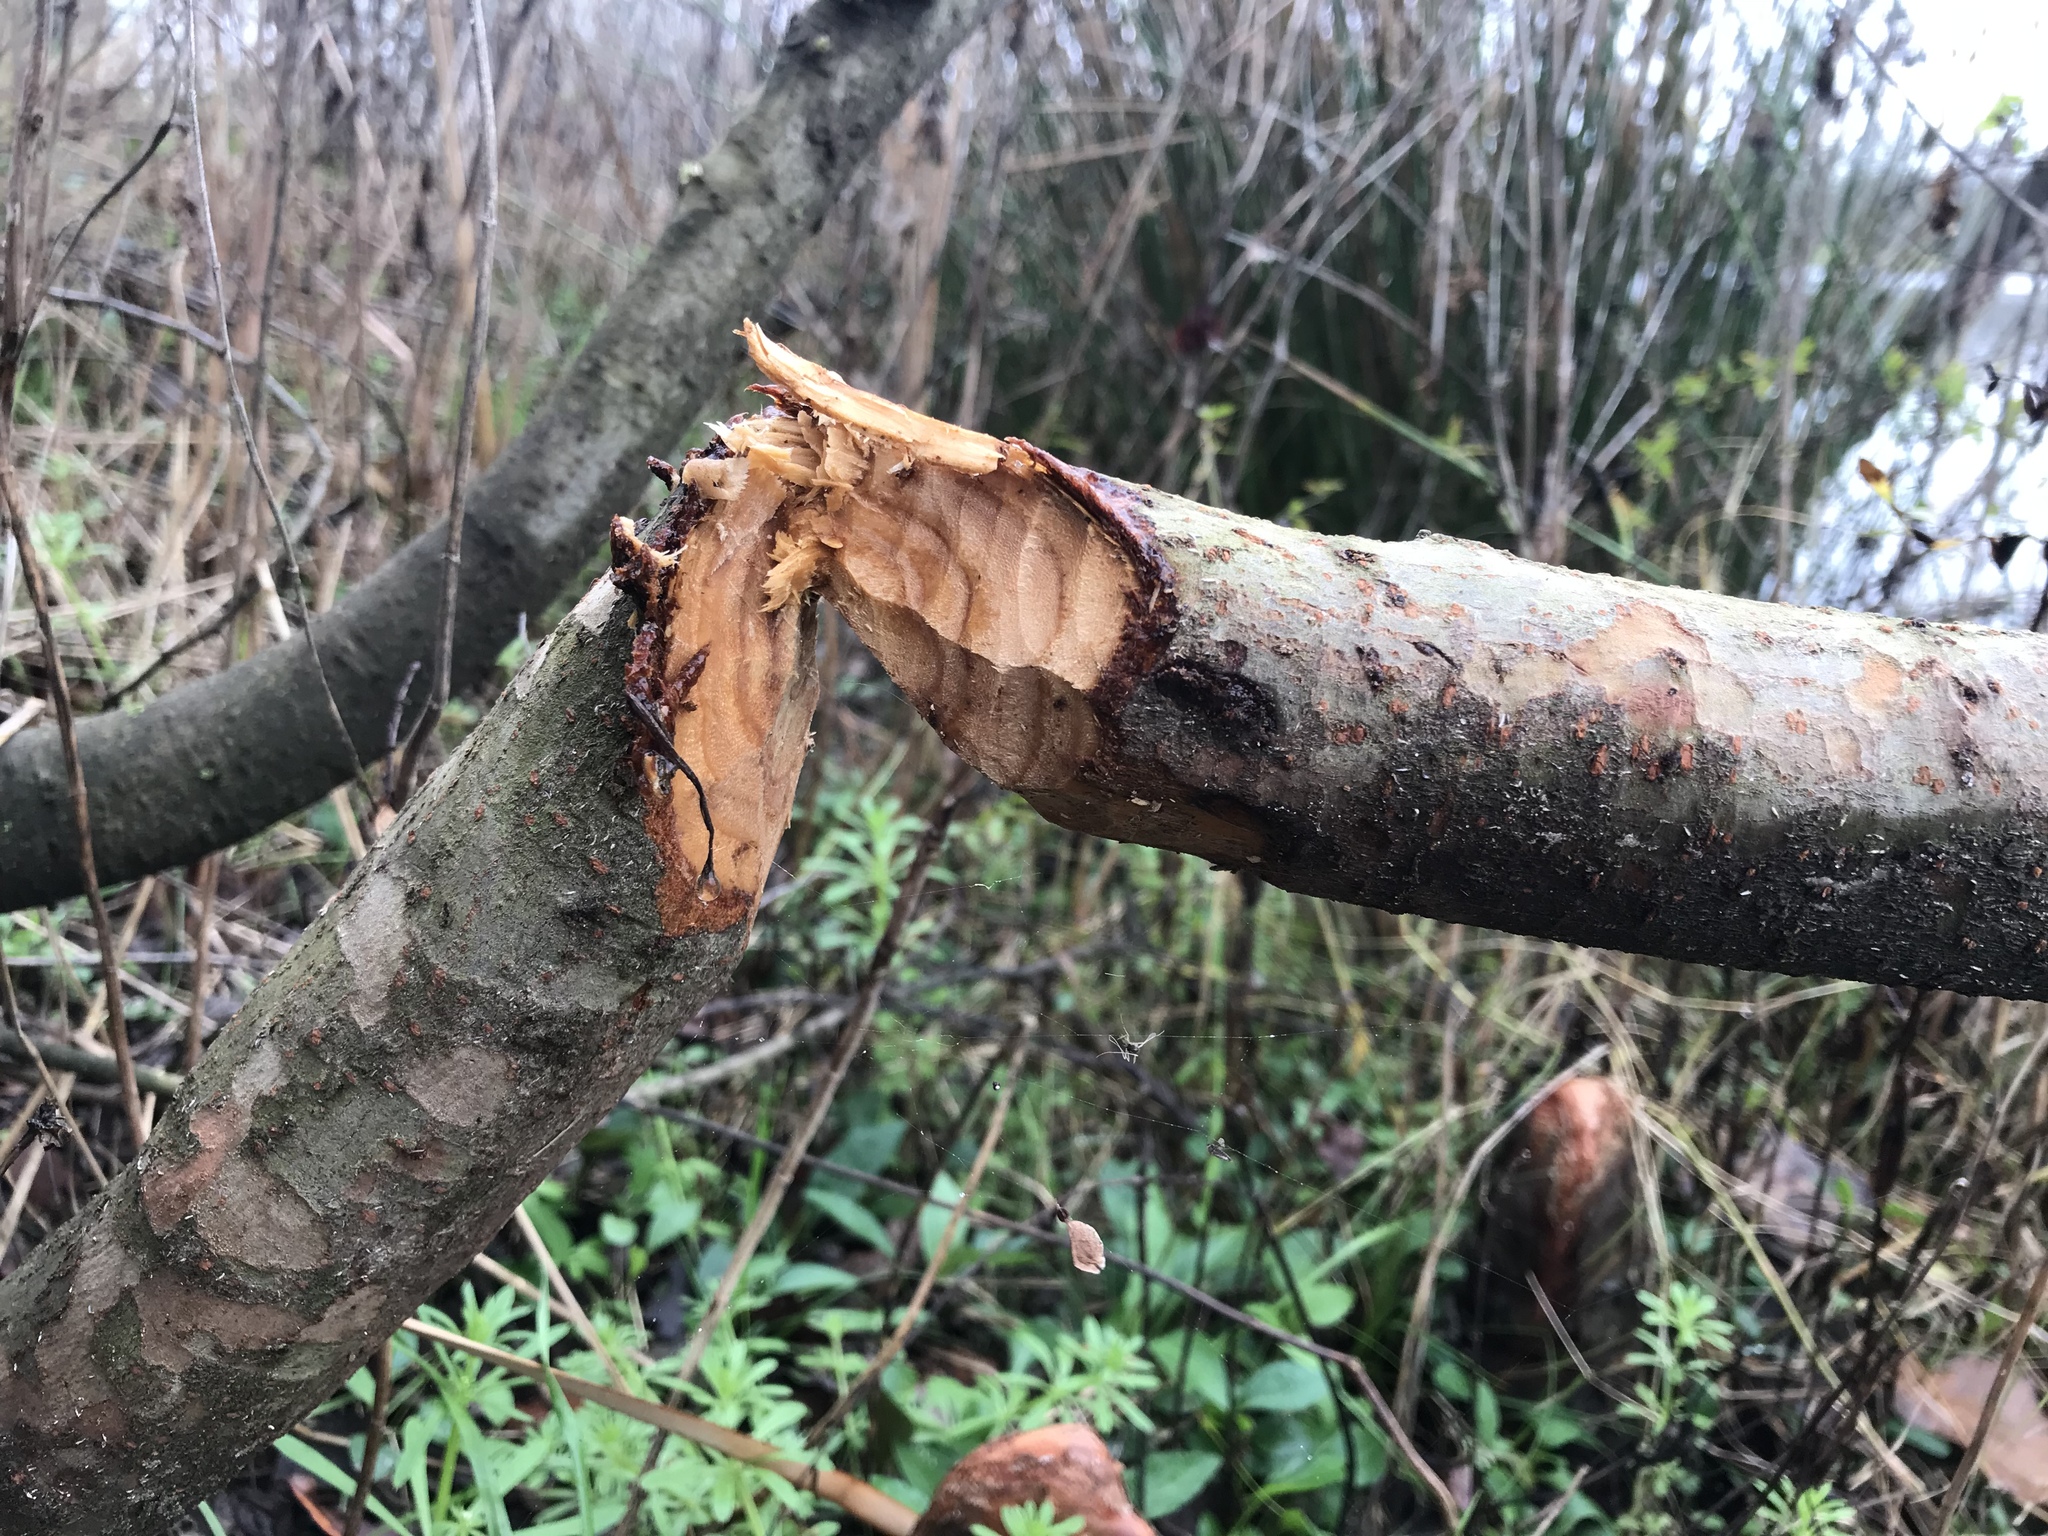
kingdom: Animalia
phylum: Chordata
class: Mammalia
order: Rodentia
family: Castoridae
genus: Castor
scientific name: Castor canadensis
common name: American beaver
